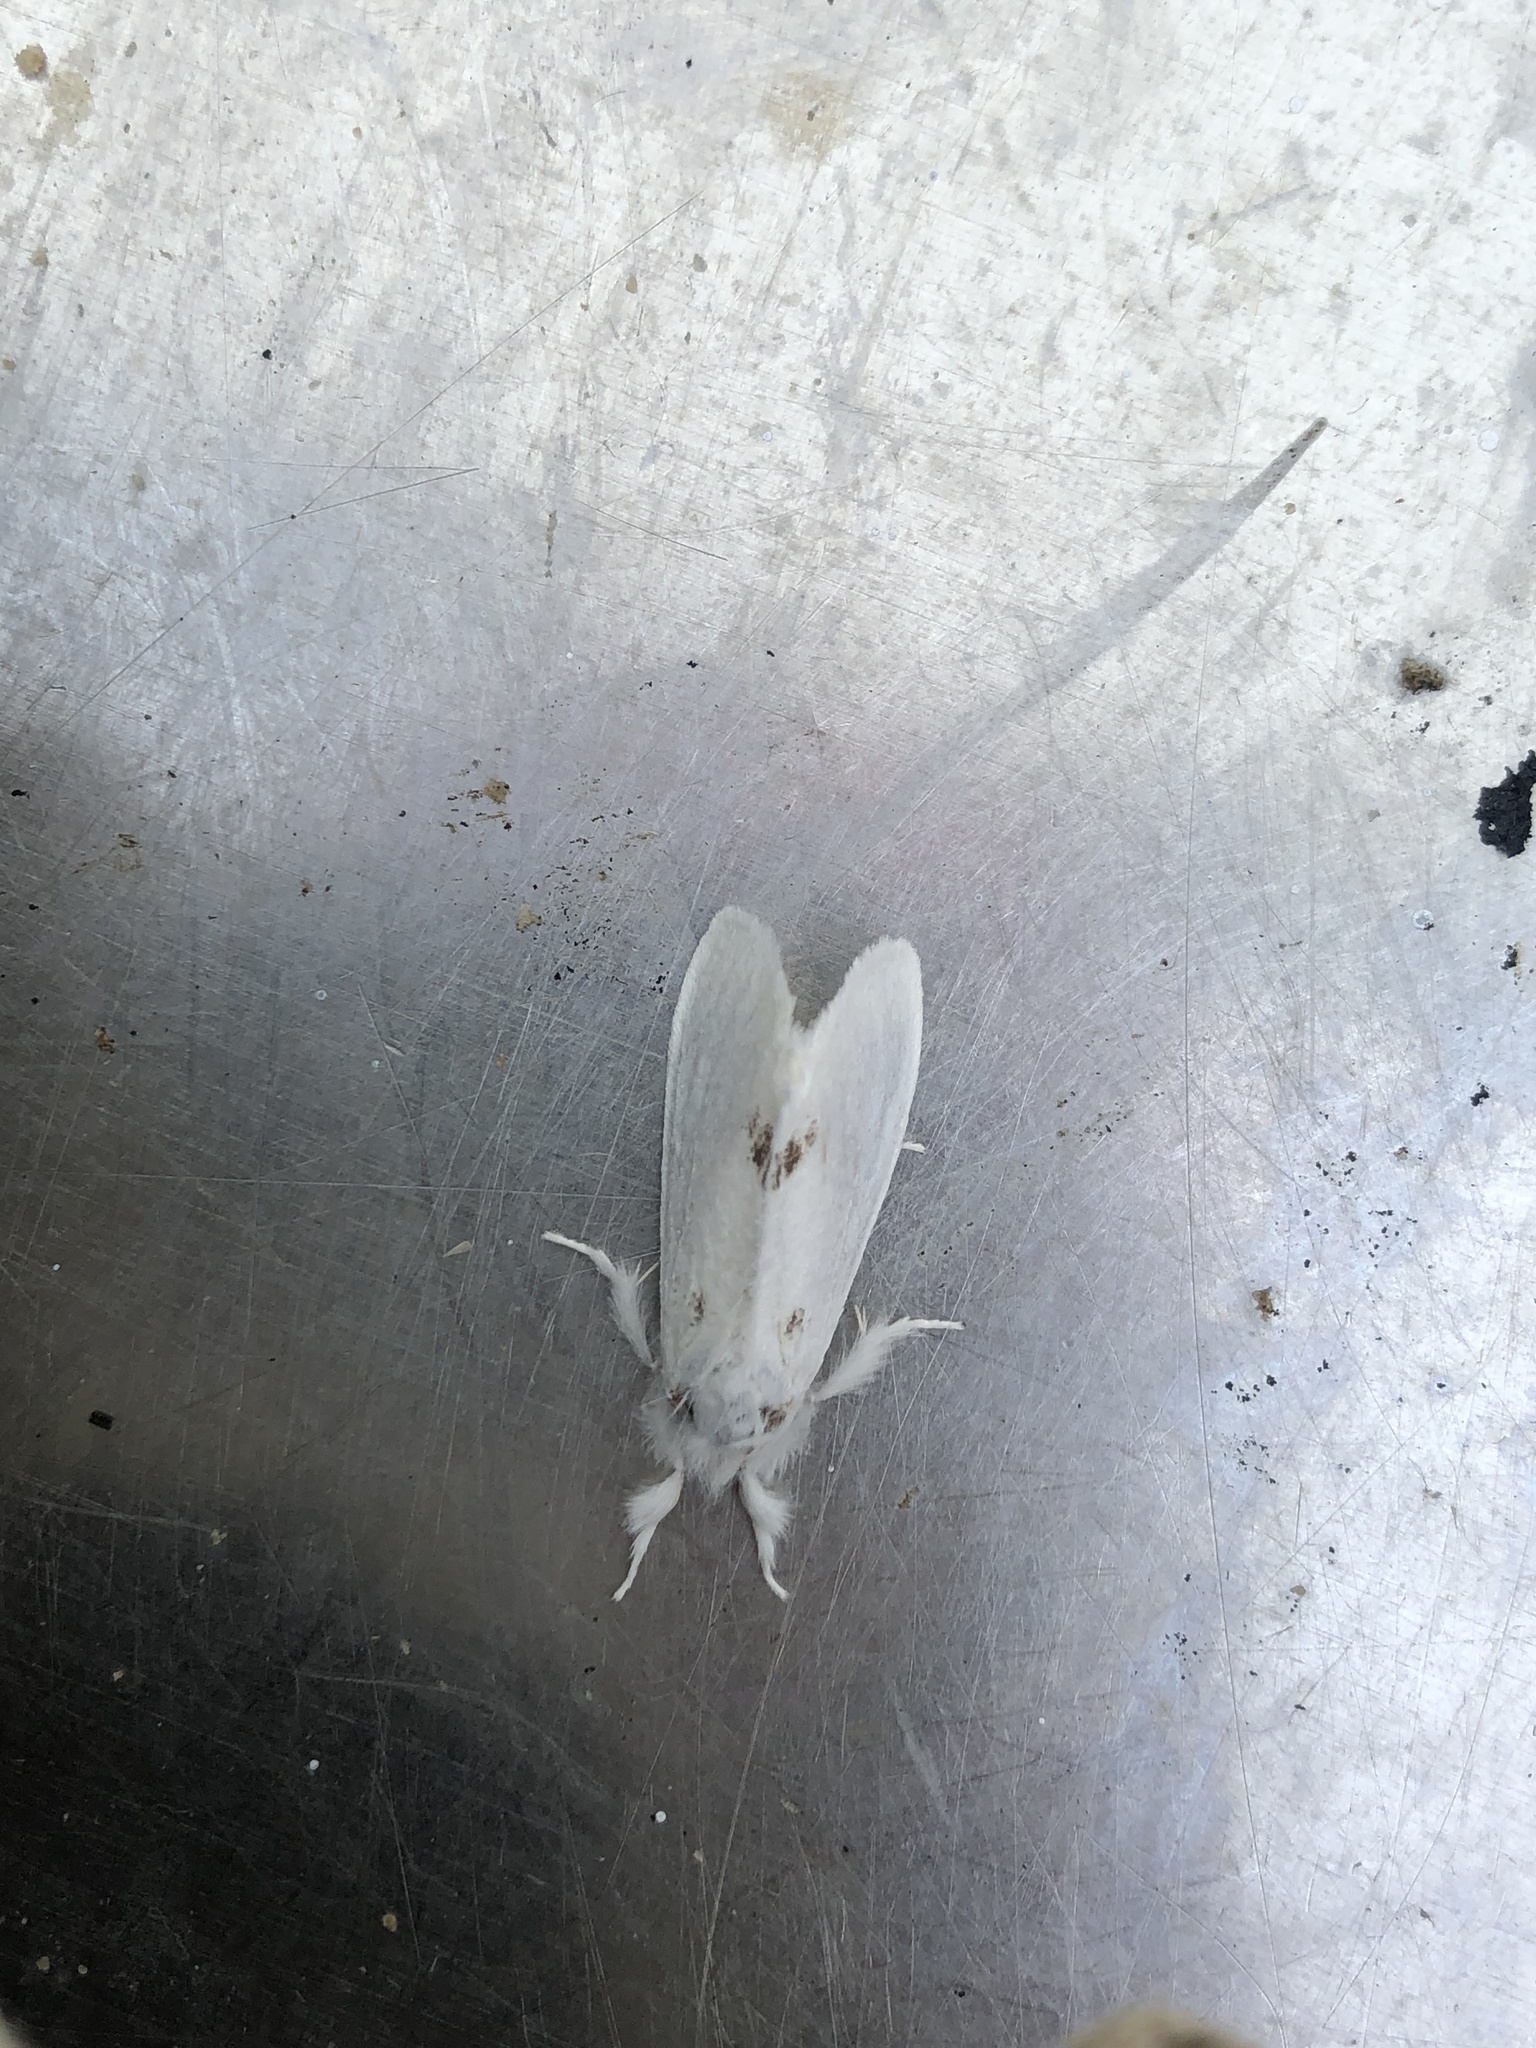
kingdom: Animalia
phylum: Arthropoda
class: Insecta
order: Lepidoptera
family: Erebidae
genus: Sphrageidus
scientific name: Sphrageidus similis
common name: Yellow-tail
